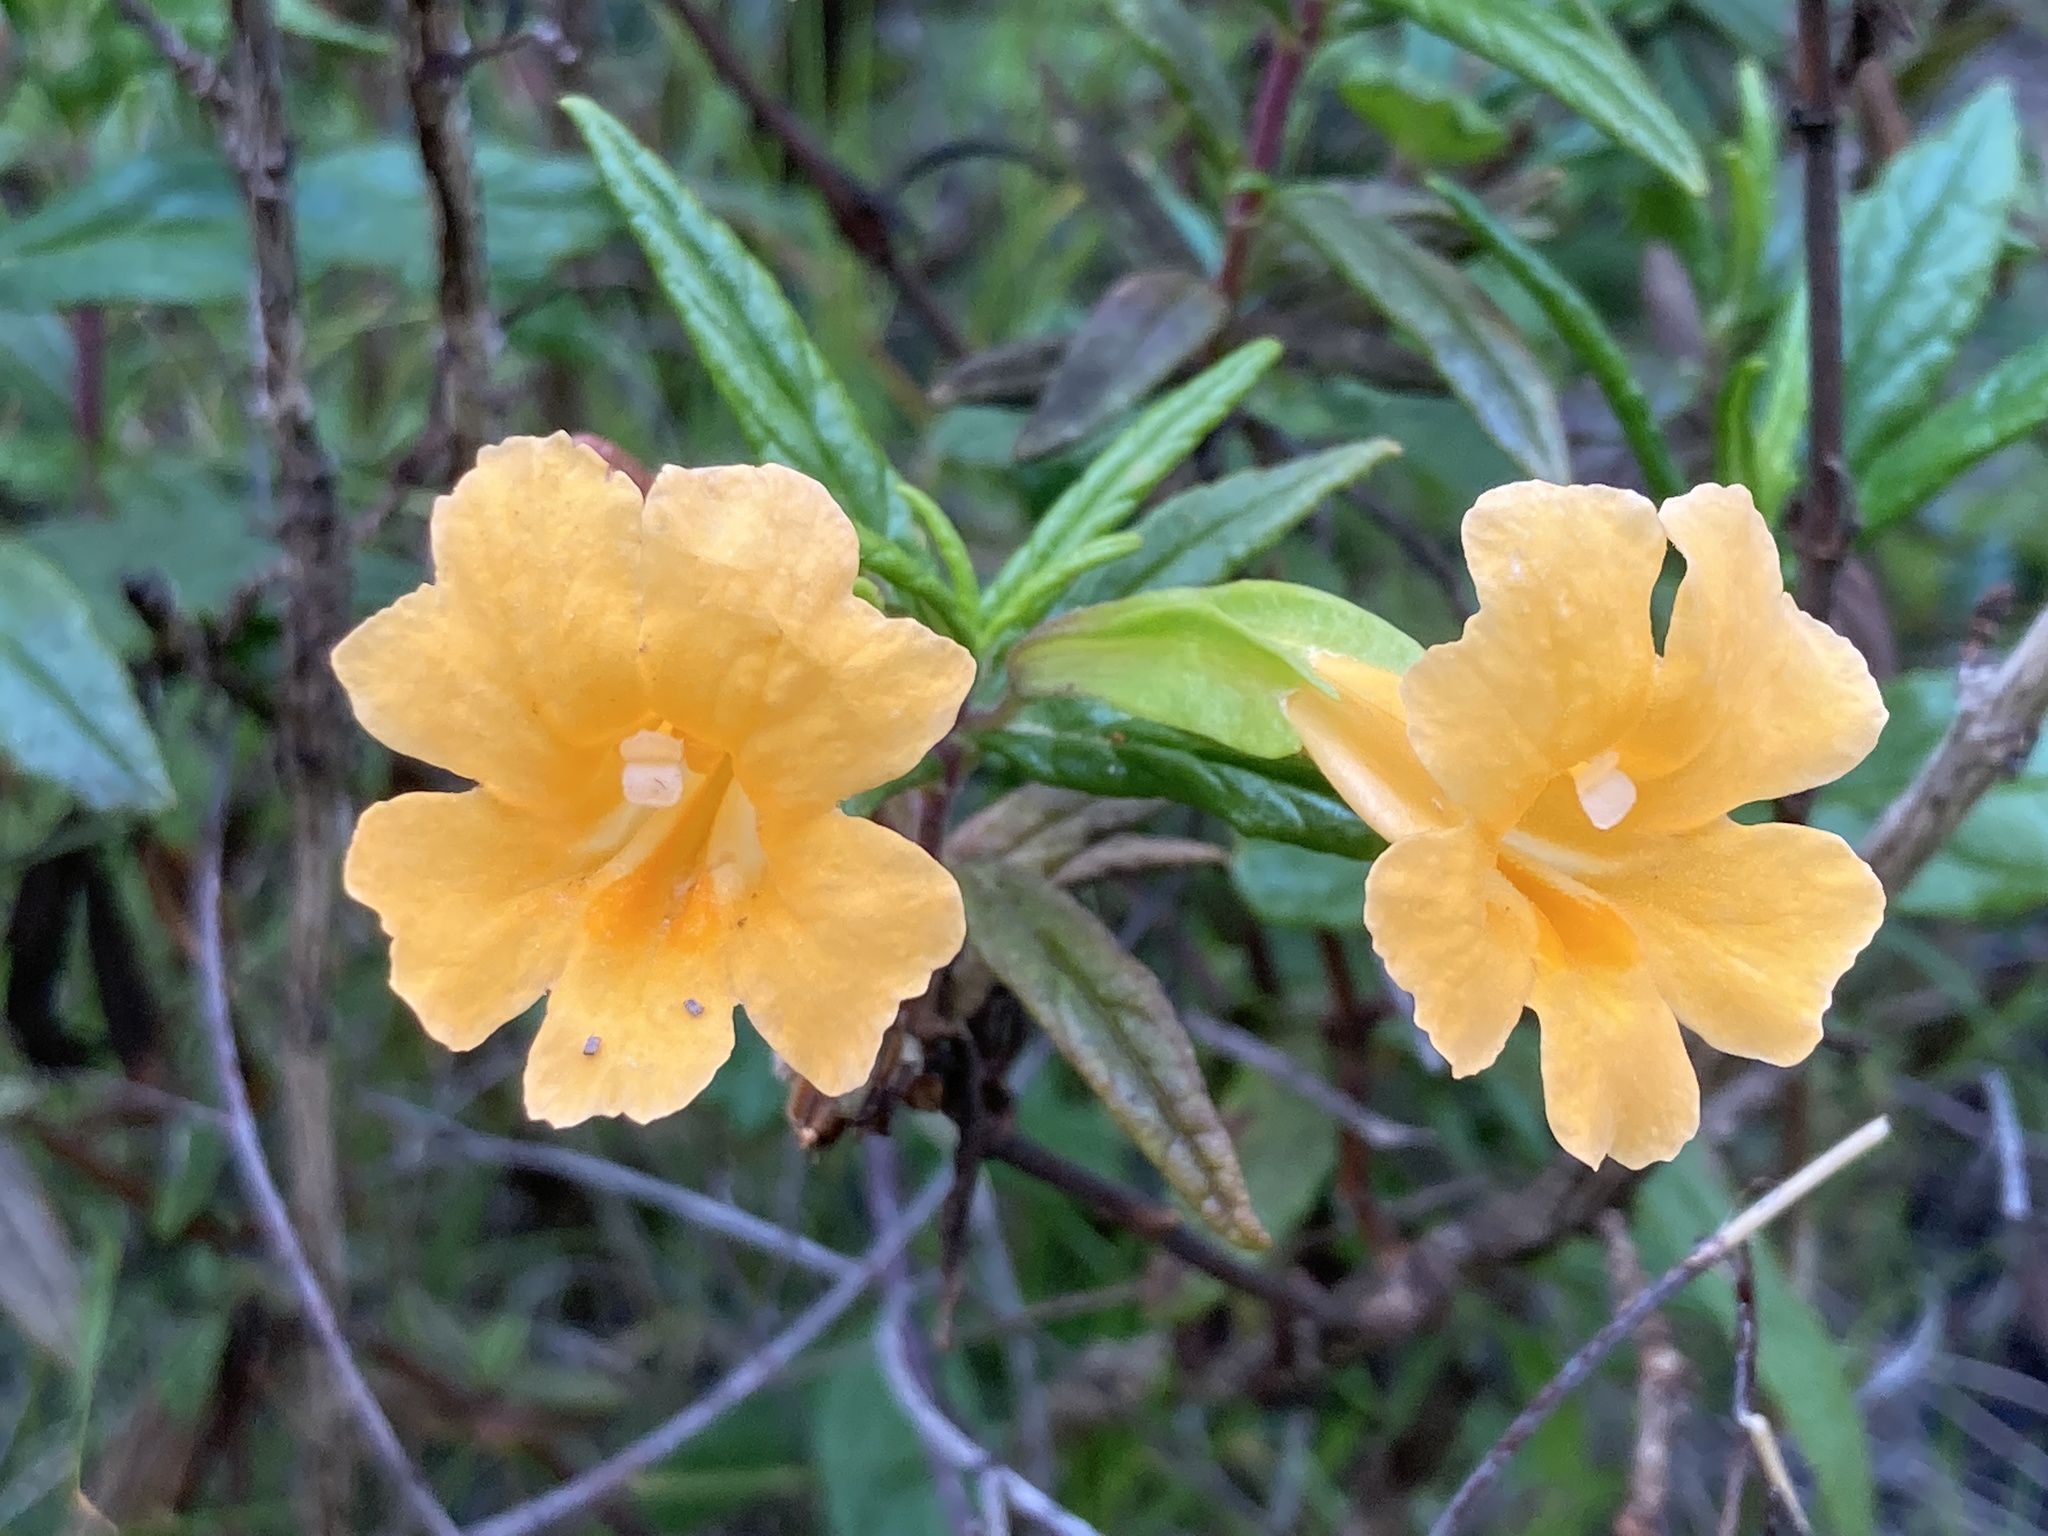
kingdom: Plantae
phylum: Tracheophyta
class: Magnoliopsida
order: Lamiales
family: Phrymaceae
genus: Diplacus
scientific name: Diplacus aurantiacus
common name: Bush monkey-flower
